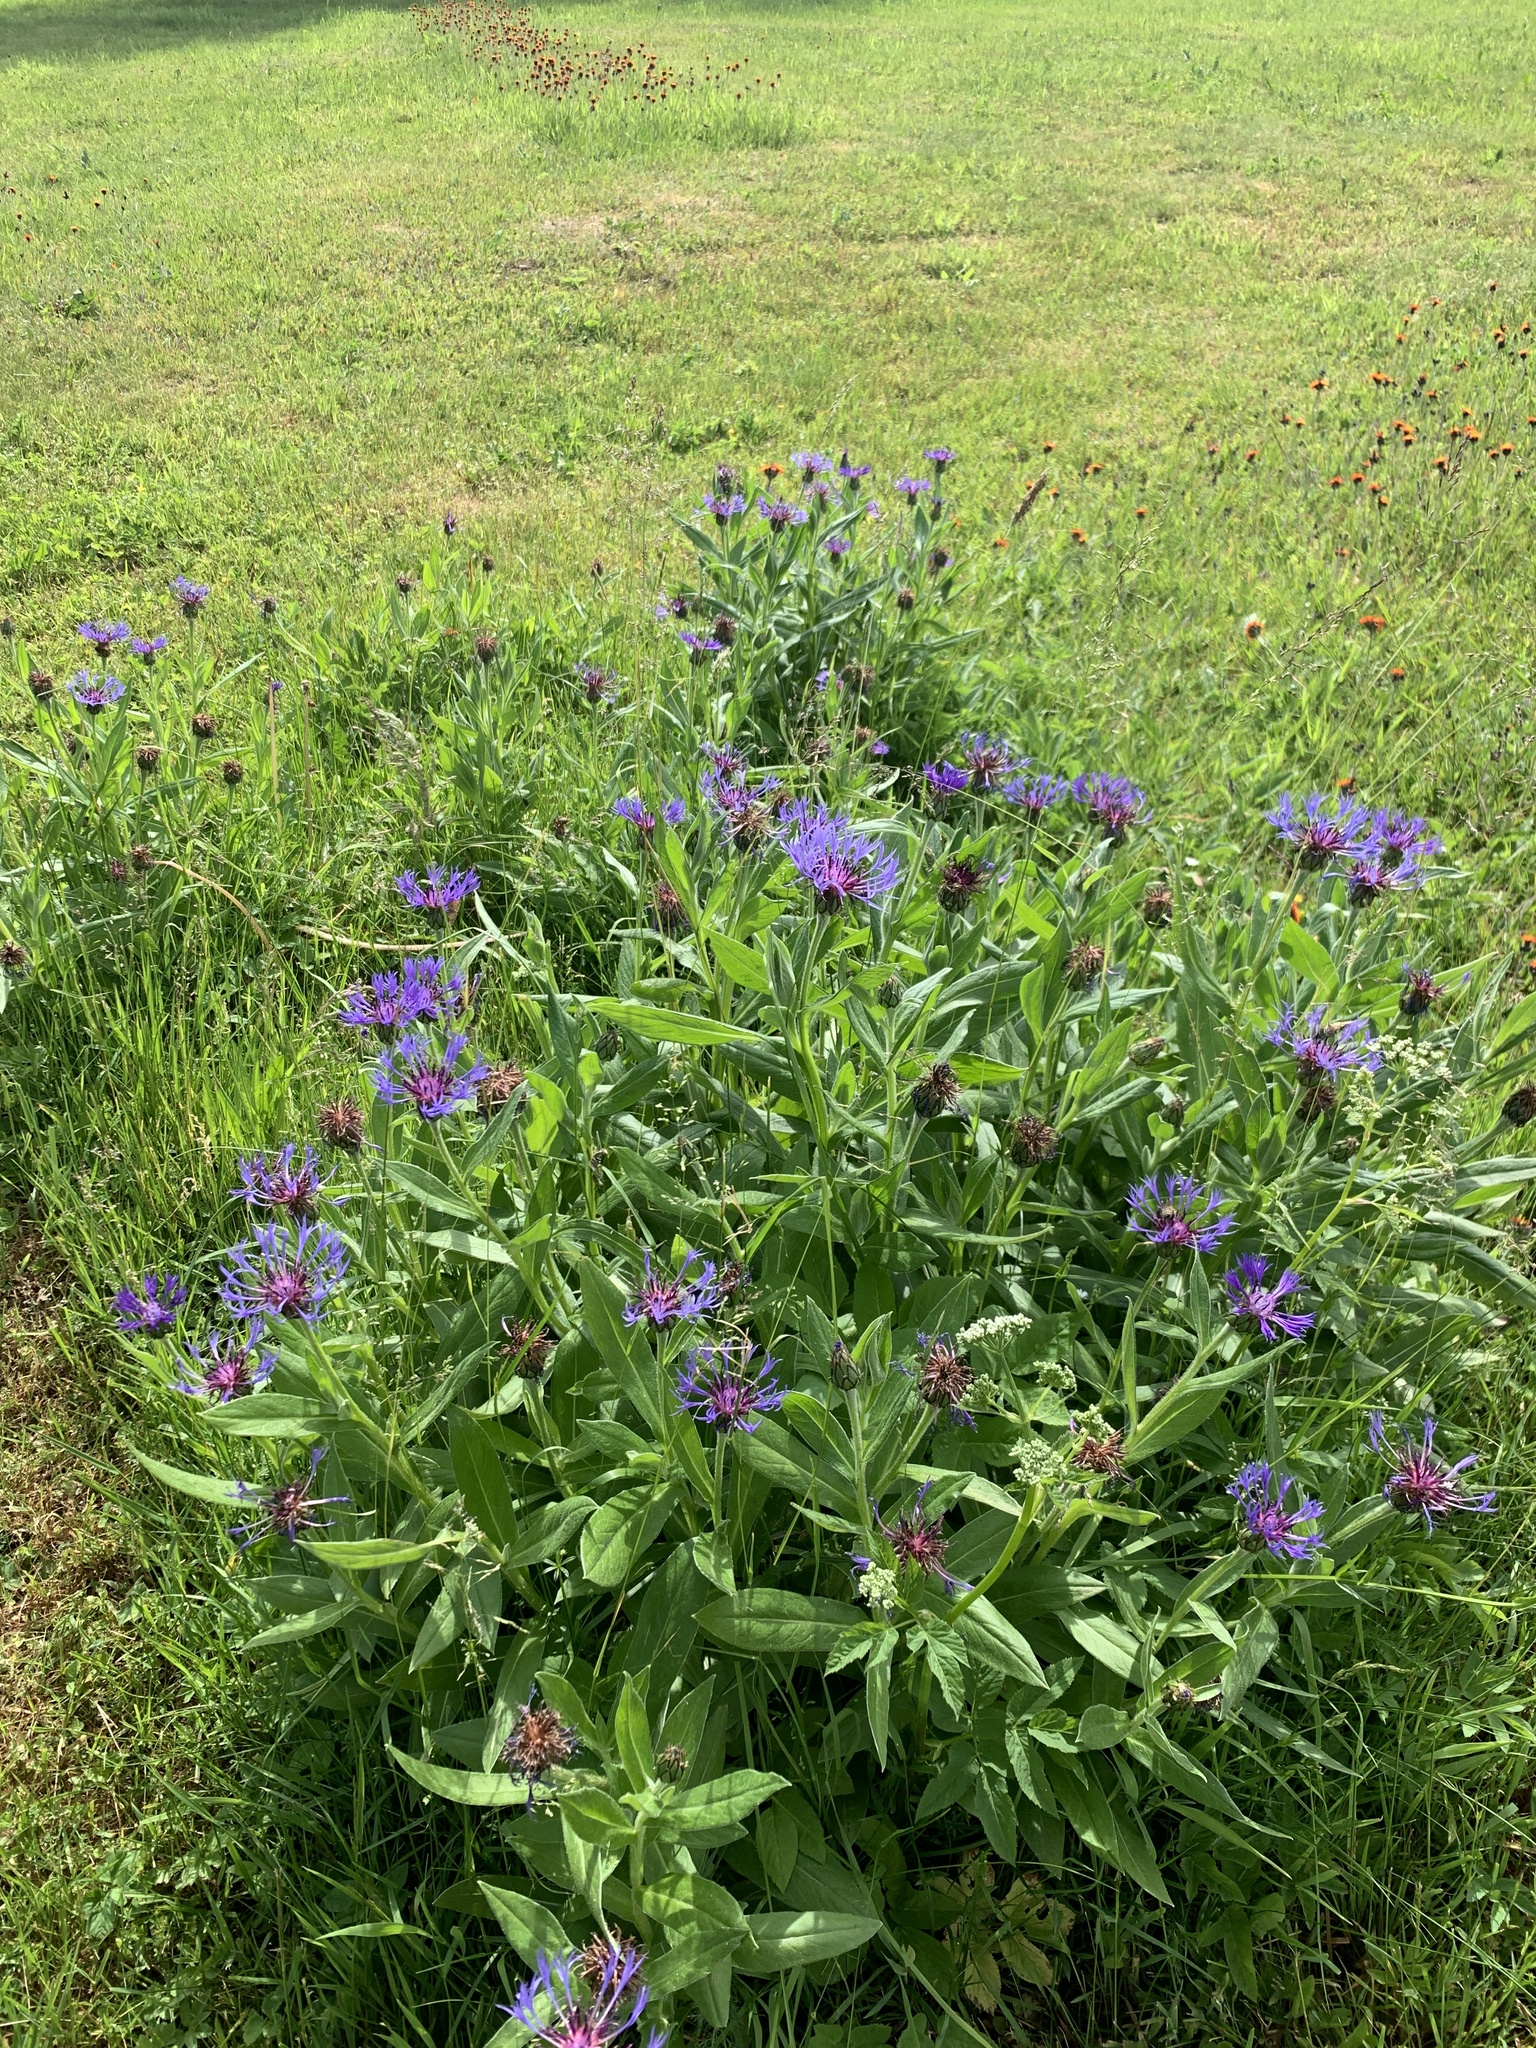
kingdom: Plantae
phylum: Tracheophyta
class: Magnoliopsida
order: Asterales
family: Asteraceae
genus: Centaurea
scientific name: Centaurea montana
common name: Perennial cornflower
